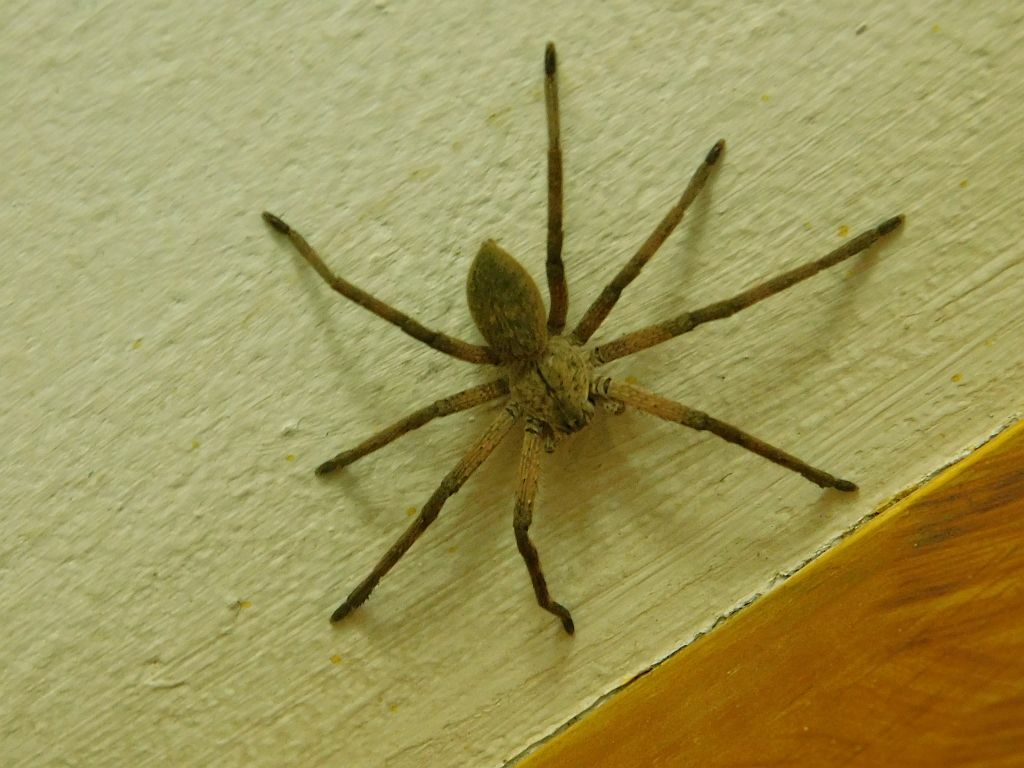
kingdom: Animalia
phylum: Arthropoda
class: Arachnida
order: Araneae
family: Sparassidae
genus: Palystes
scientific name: Palystes superciliosus
